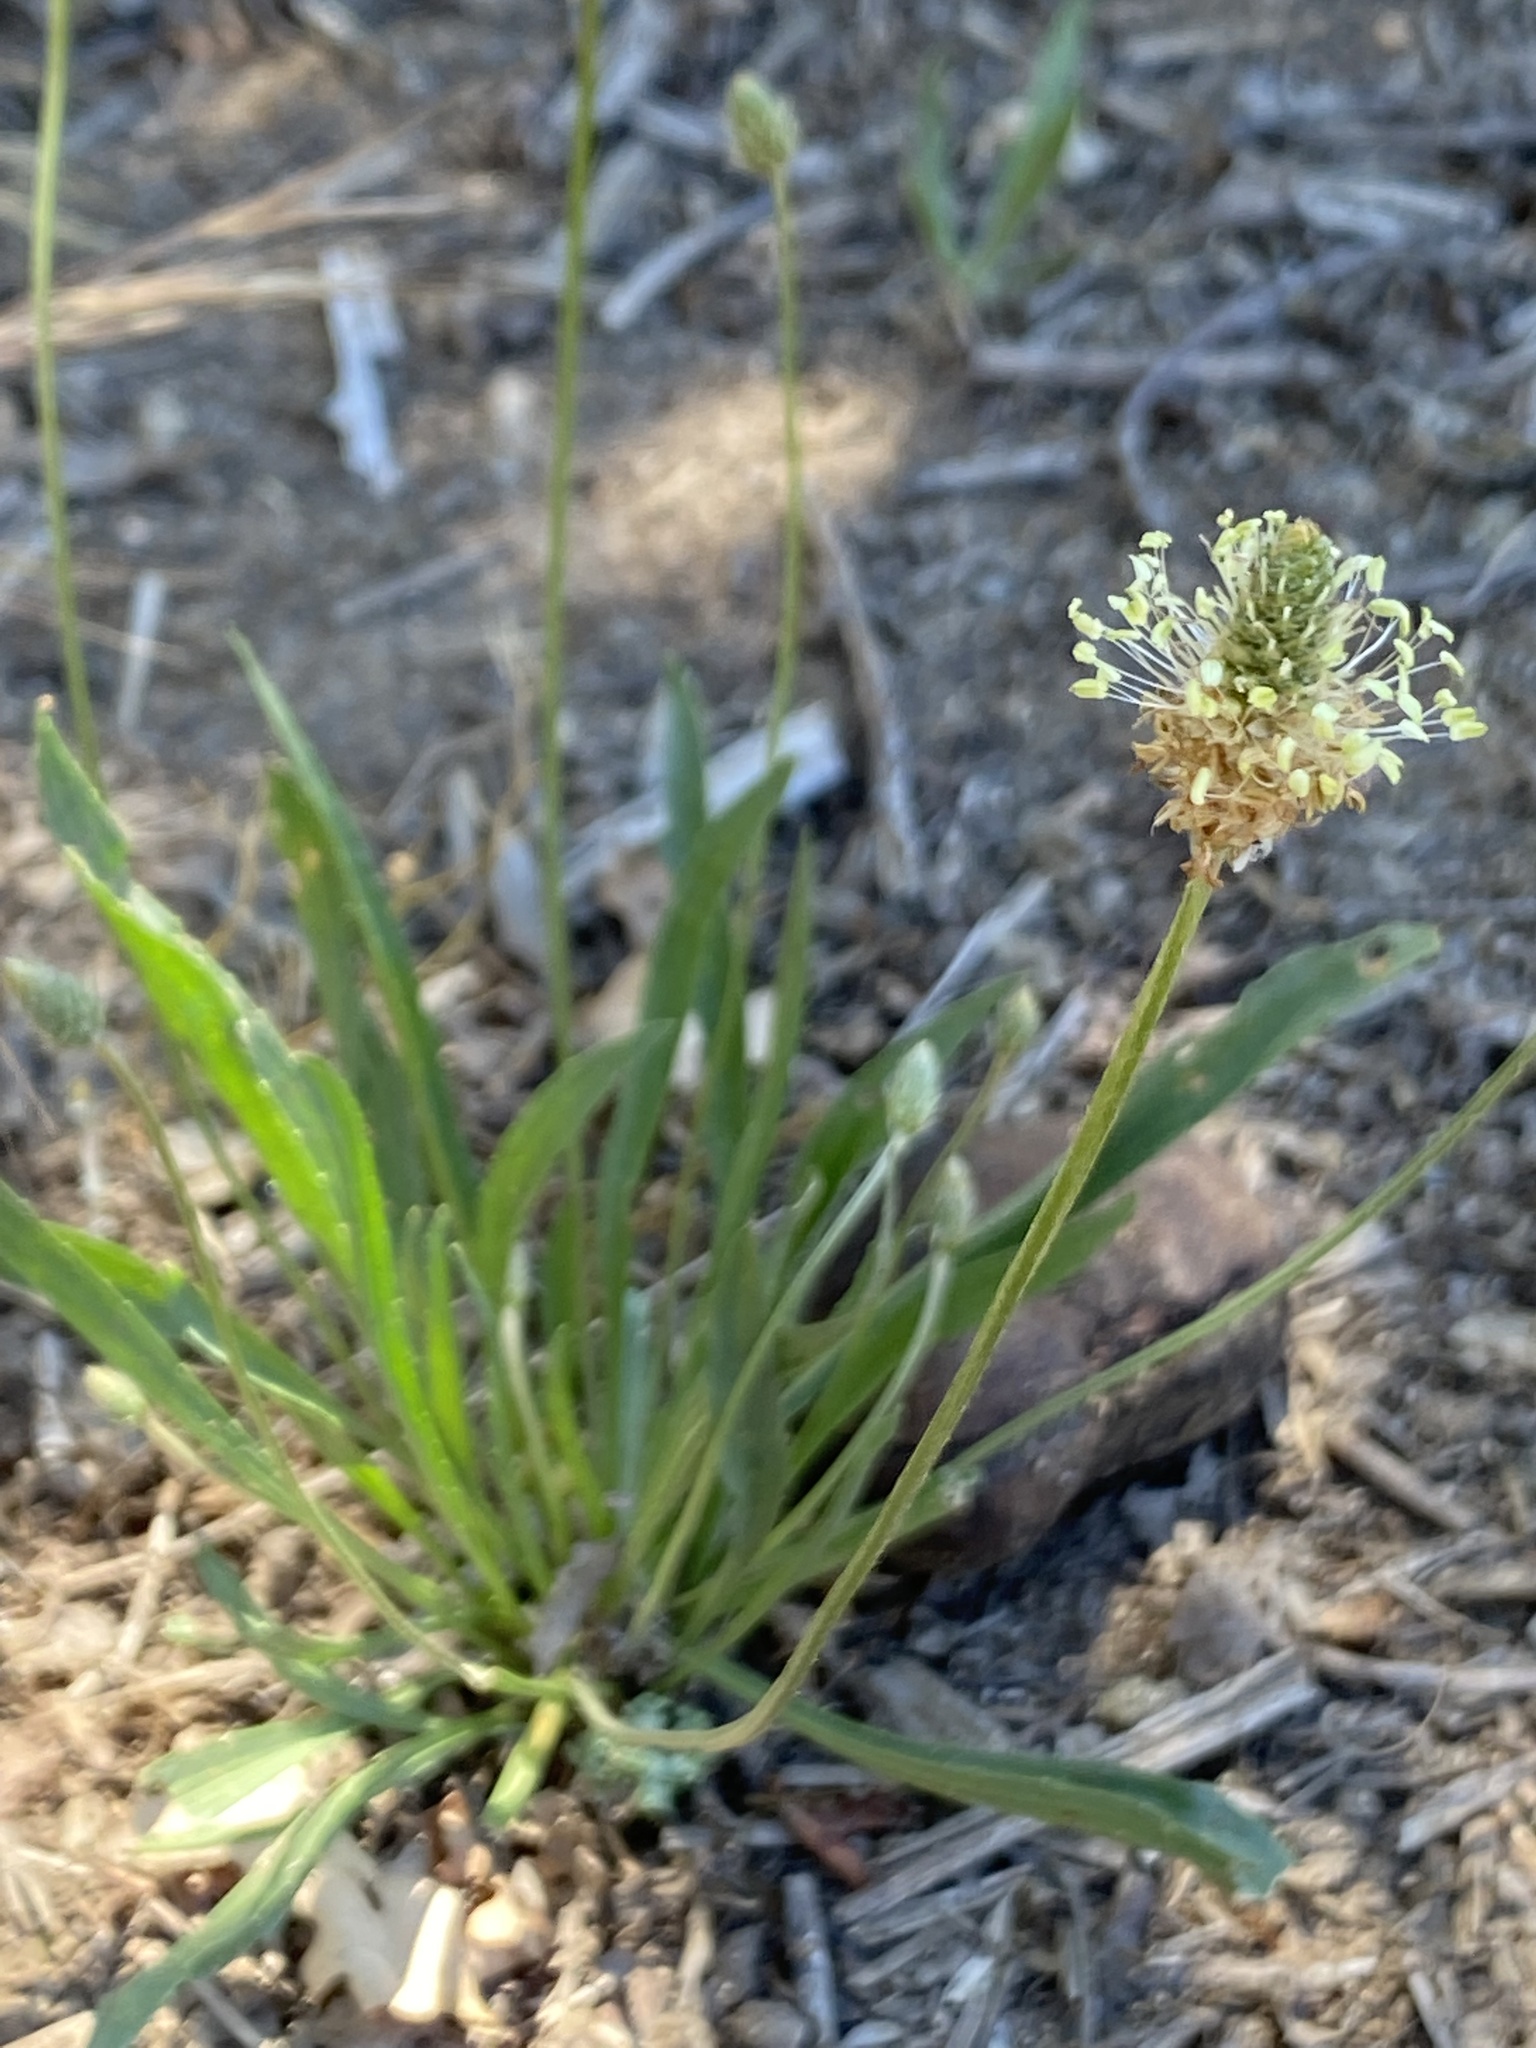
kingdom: Plantae
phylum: Tracheophyta
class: Magnoliopsida
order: Lamiales
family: Plantaginaceae
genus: Plantago
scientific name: Plantago lanceolata
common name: Ribwort plantain
